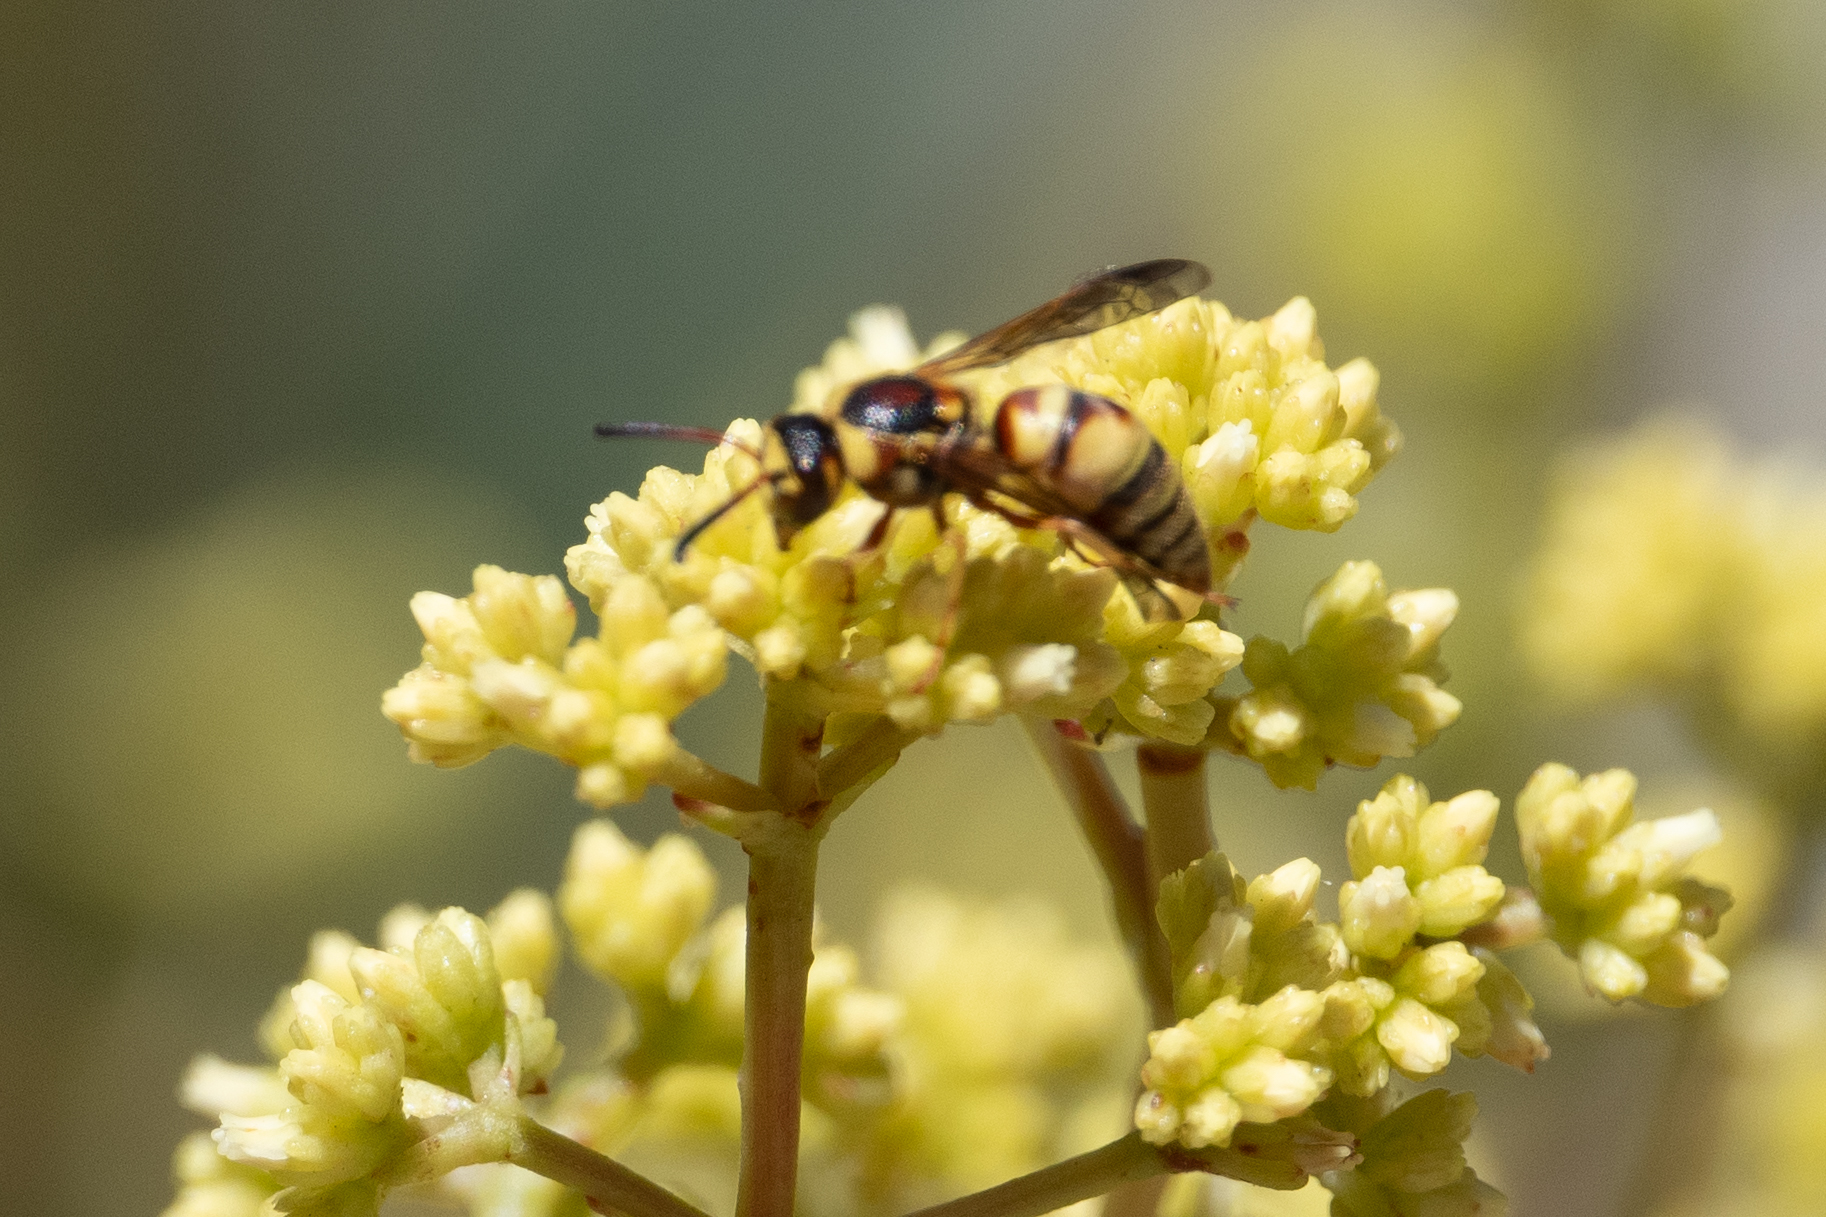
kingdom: Animalia
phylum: Arthropoda
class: Insecta
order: Hymenoptera
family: Eumenidae
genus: Euodynerus
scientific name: Euodynerus
